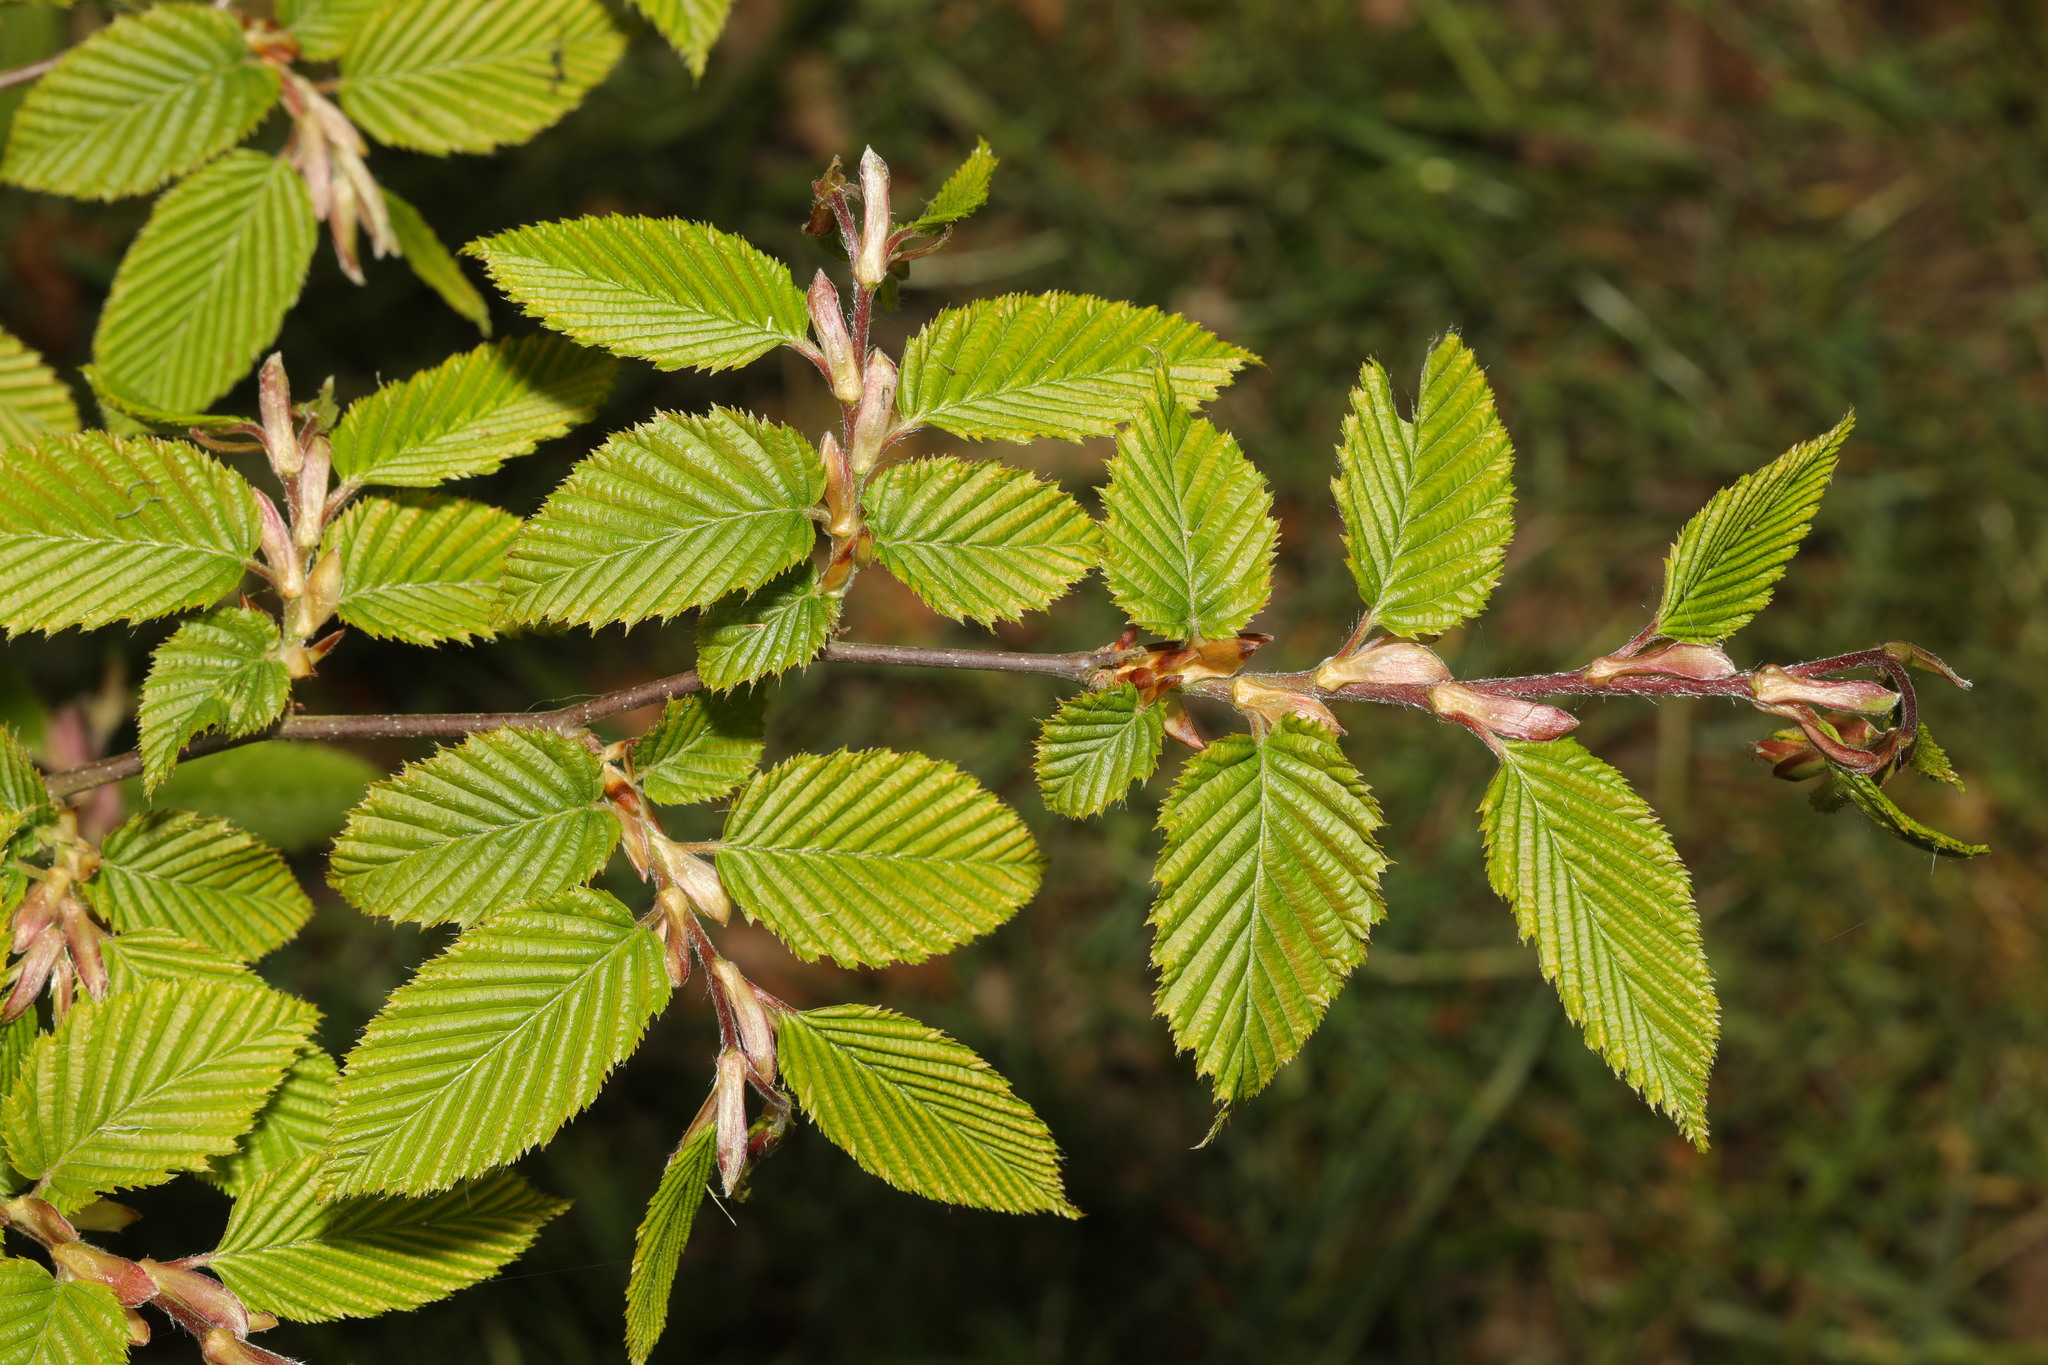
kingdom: Plantae
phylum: Tracheophyta
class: Magnoliopsida
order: Fagales
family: Betulaceae
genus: Carpinus
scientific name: Carpinus betulus
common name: Hornbeam
